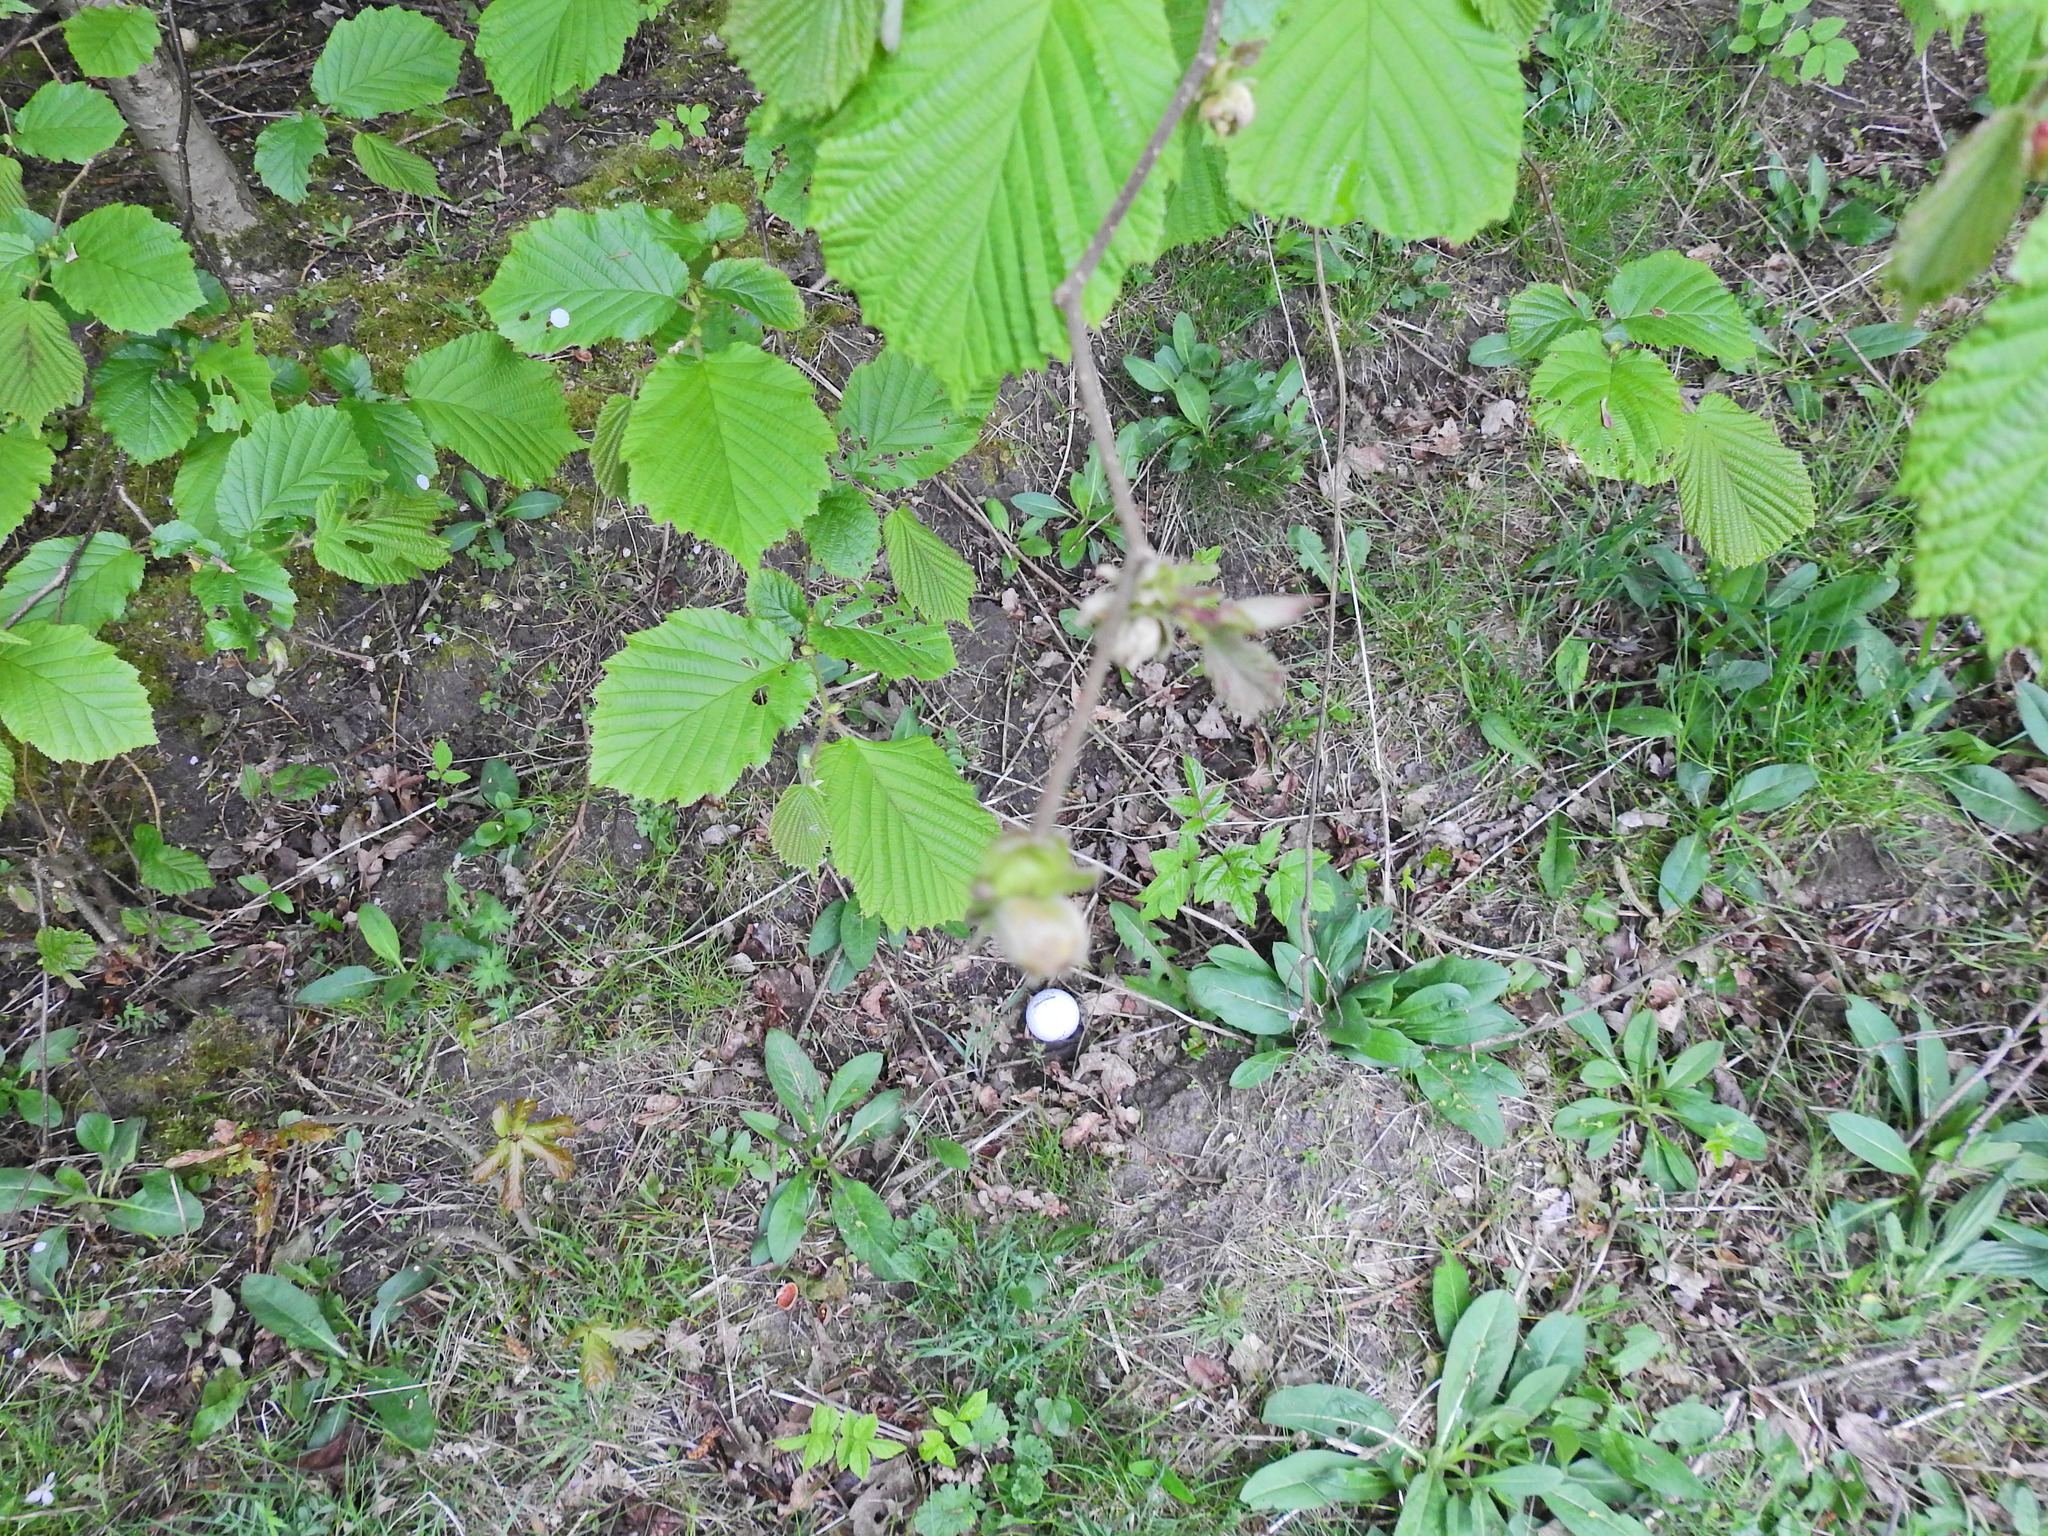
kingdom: Animalia
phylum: Arthropoda
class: Arachnida
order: Trombidiformes
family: Phytoptidae
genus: Phytoptus
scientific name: Phytoptus avellanae
